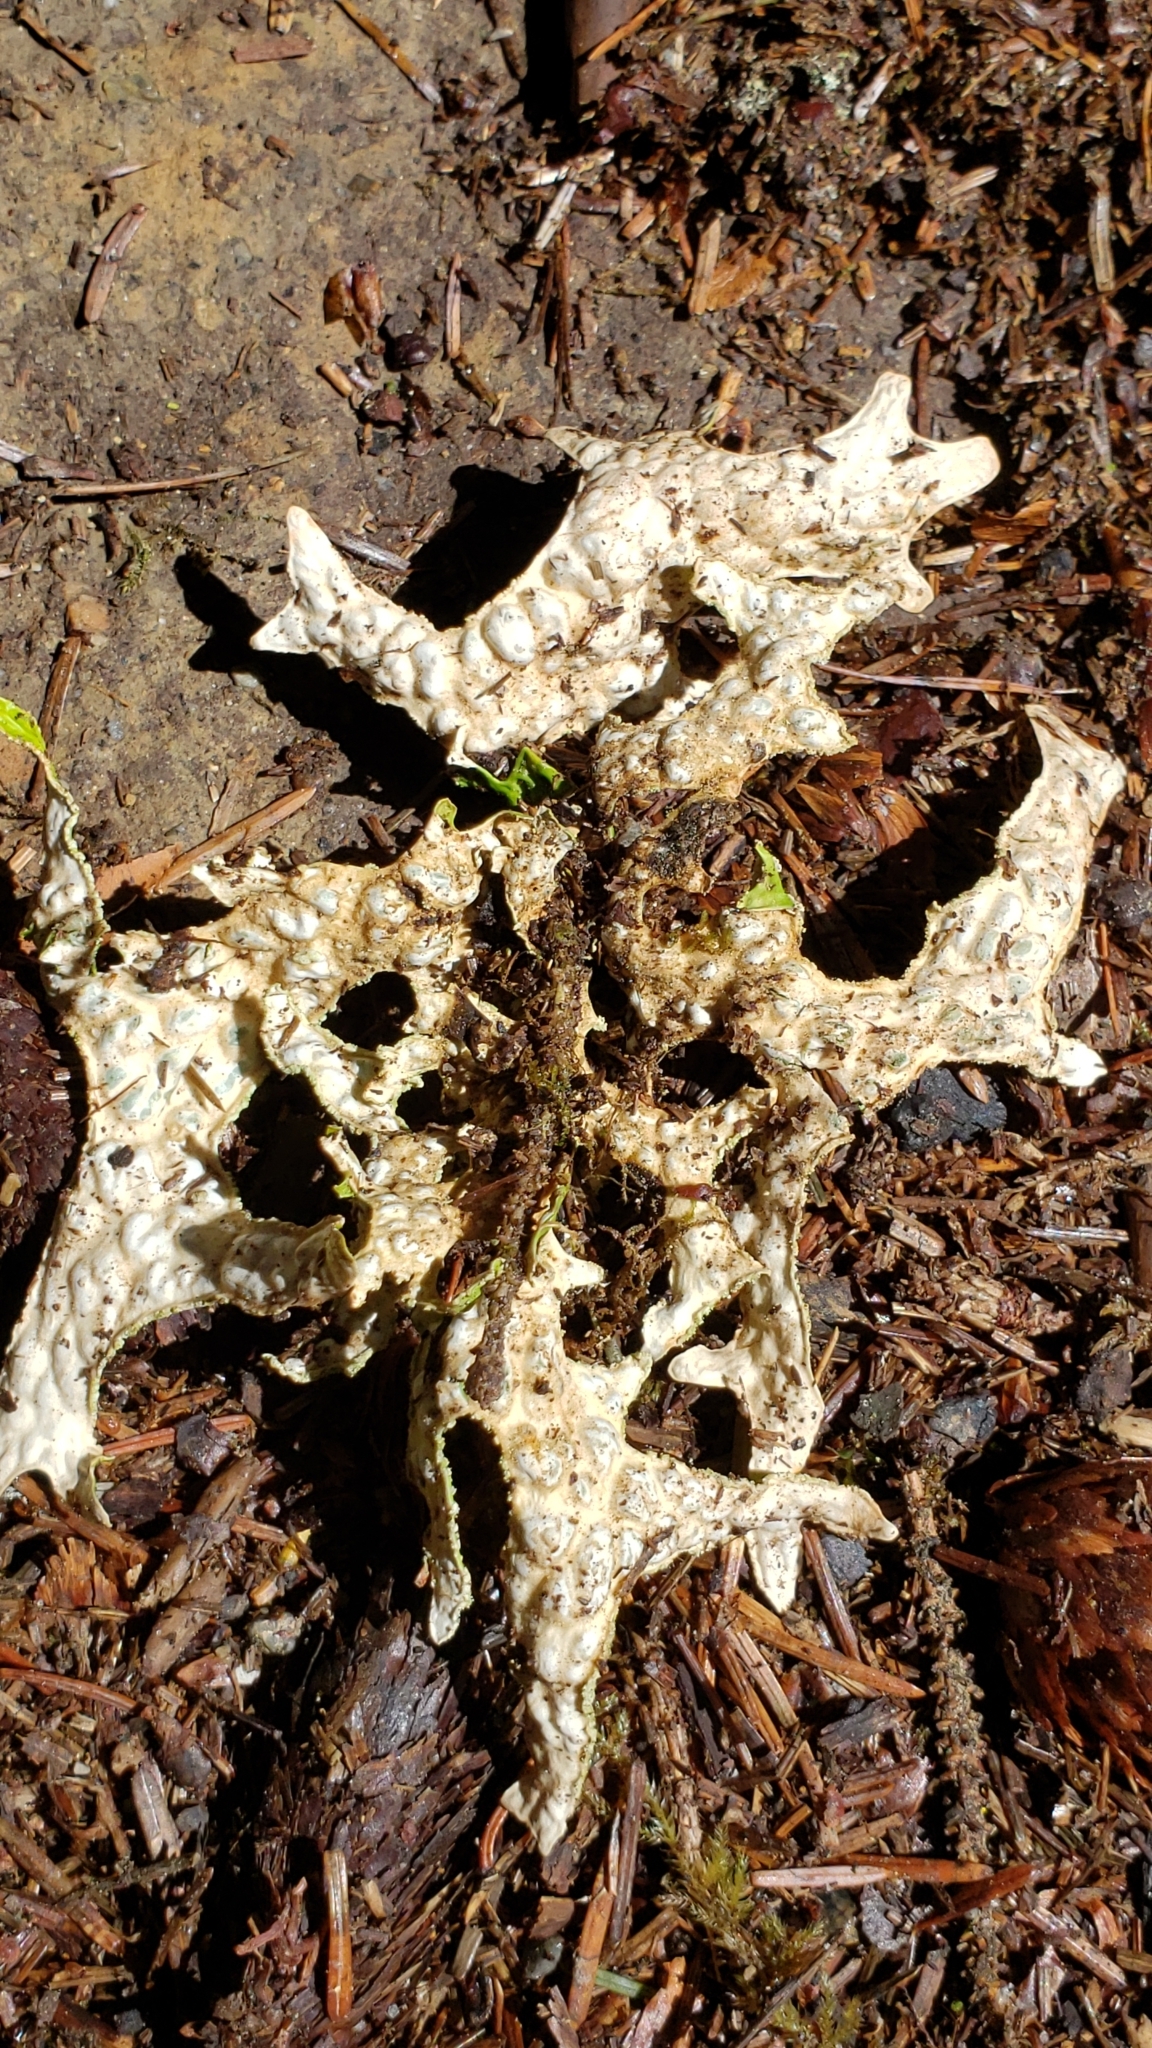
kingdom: Fungi
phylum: Ascomycota
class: Lecanoromycetes
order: Peltigerales
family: Lobariaceae
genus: Lobaria
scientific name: Lobaria pulmonaria
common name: Lungwort
